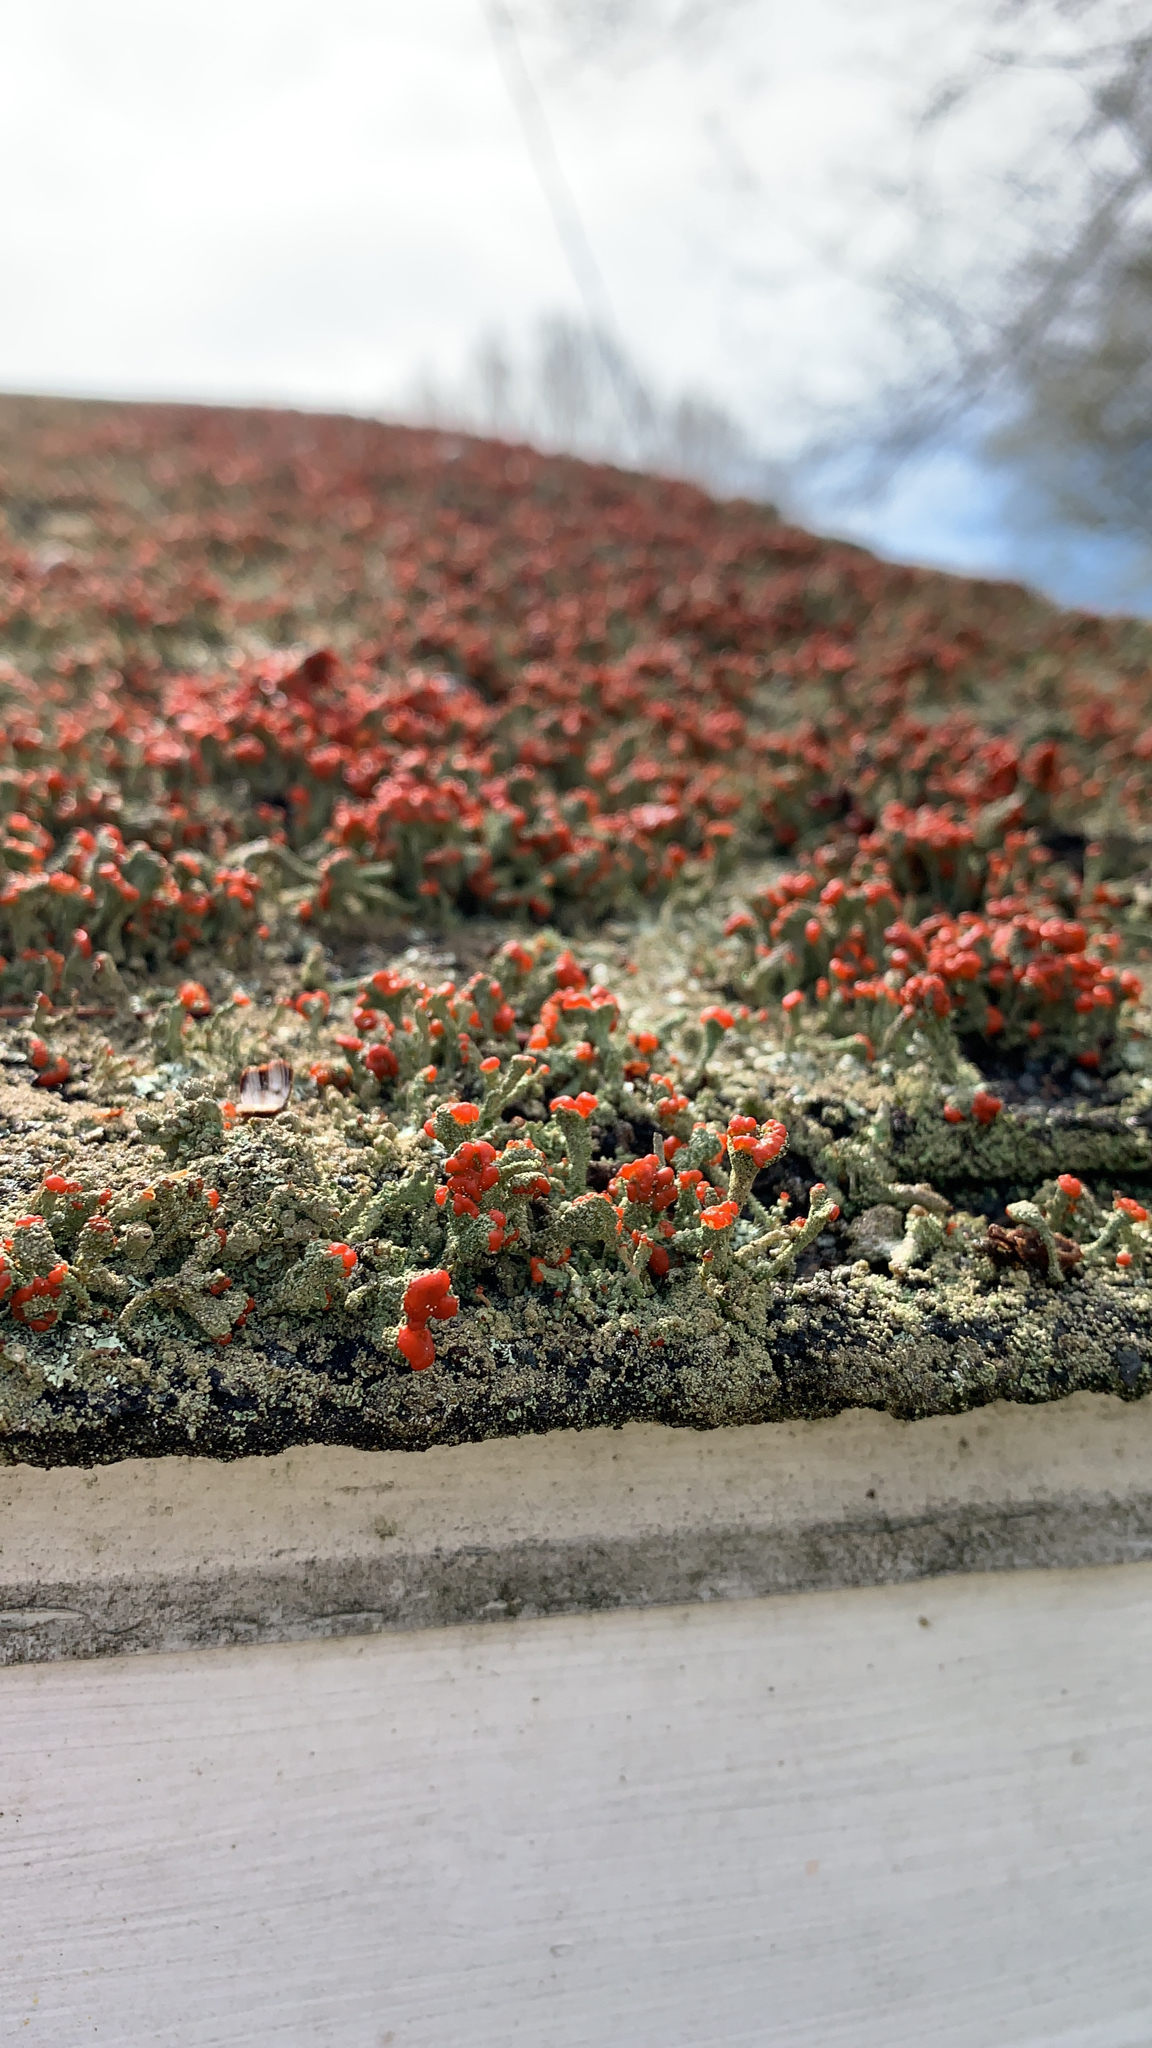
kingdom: Fungi
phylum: Ascomycota
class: Lecanoromycetes
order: Lecanorales
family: Cladoniaceae
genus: Cladonia
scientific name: Cladonia didyma
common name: Southern soldiers
